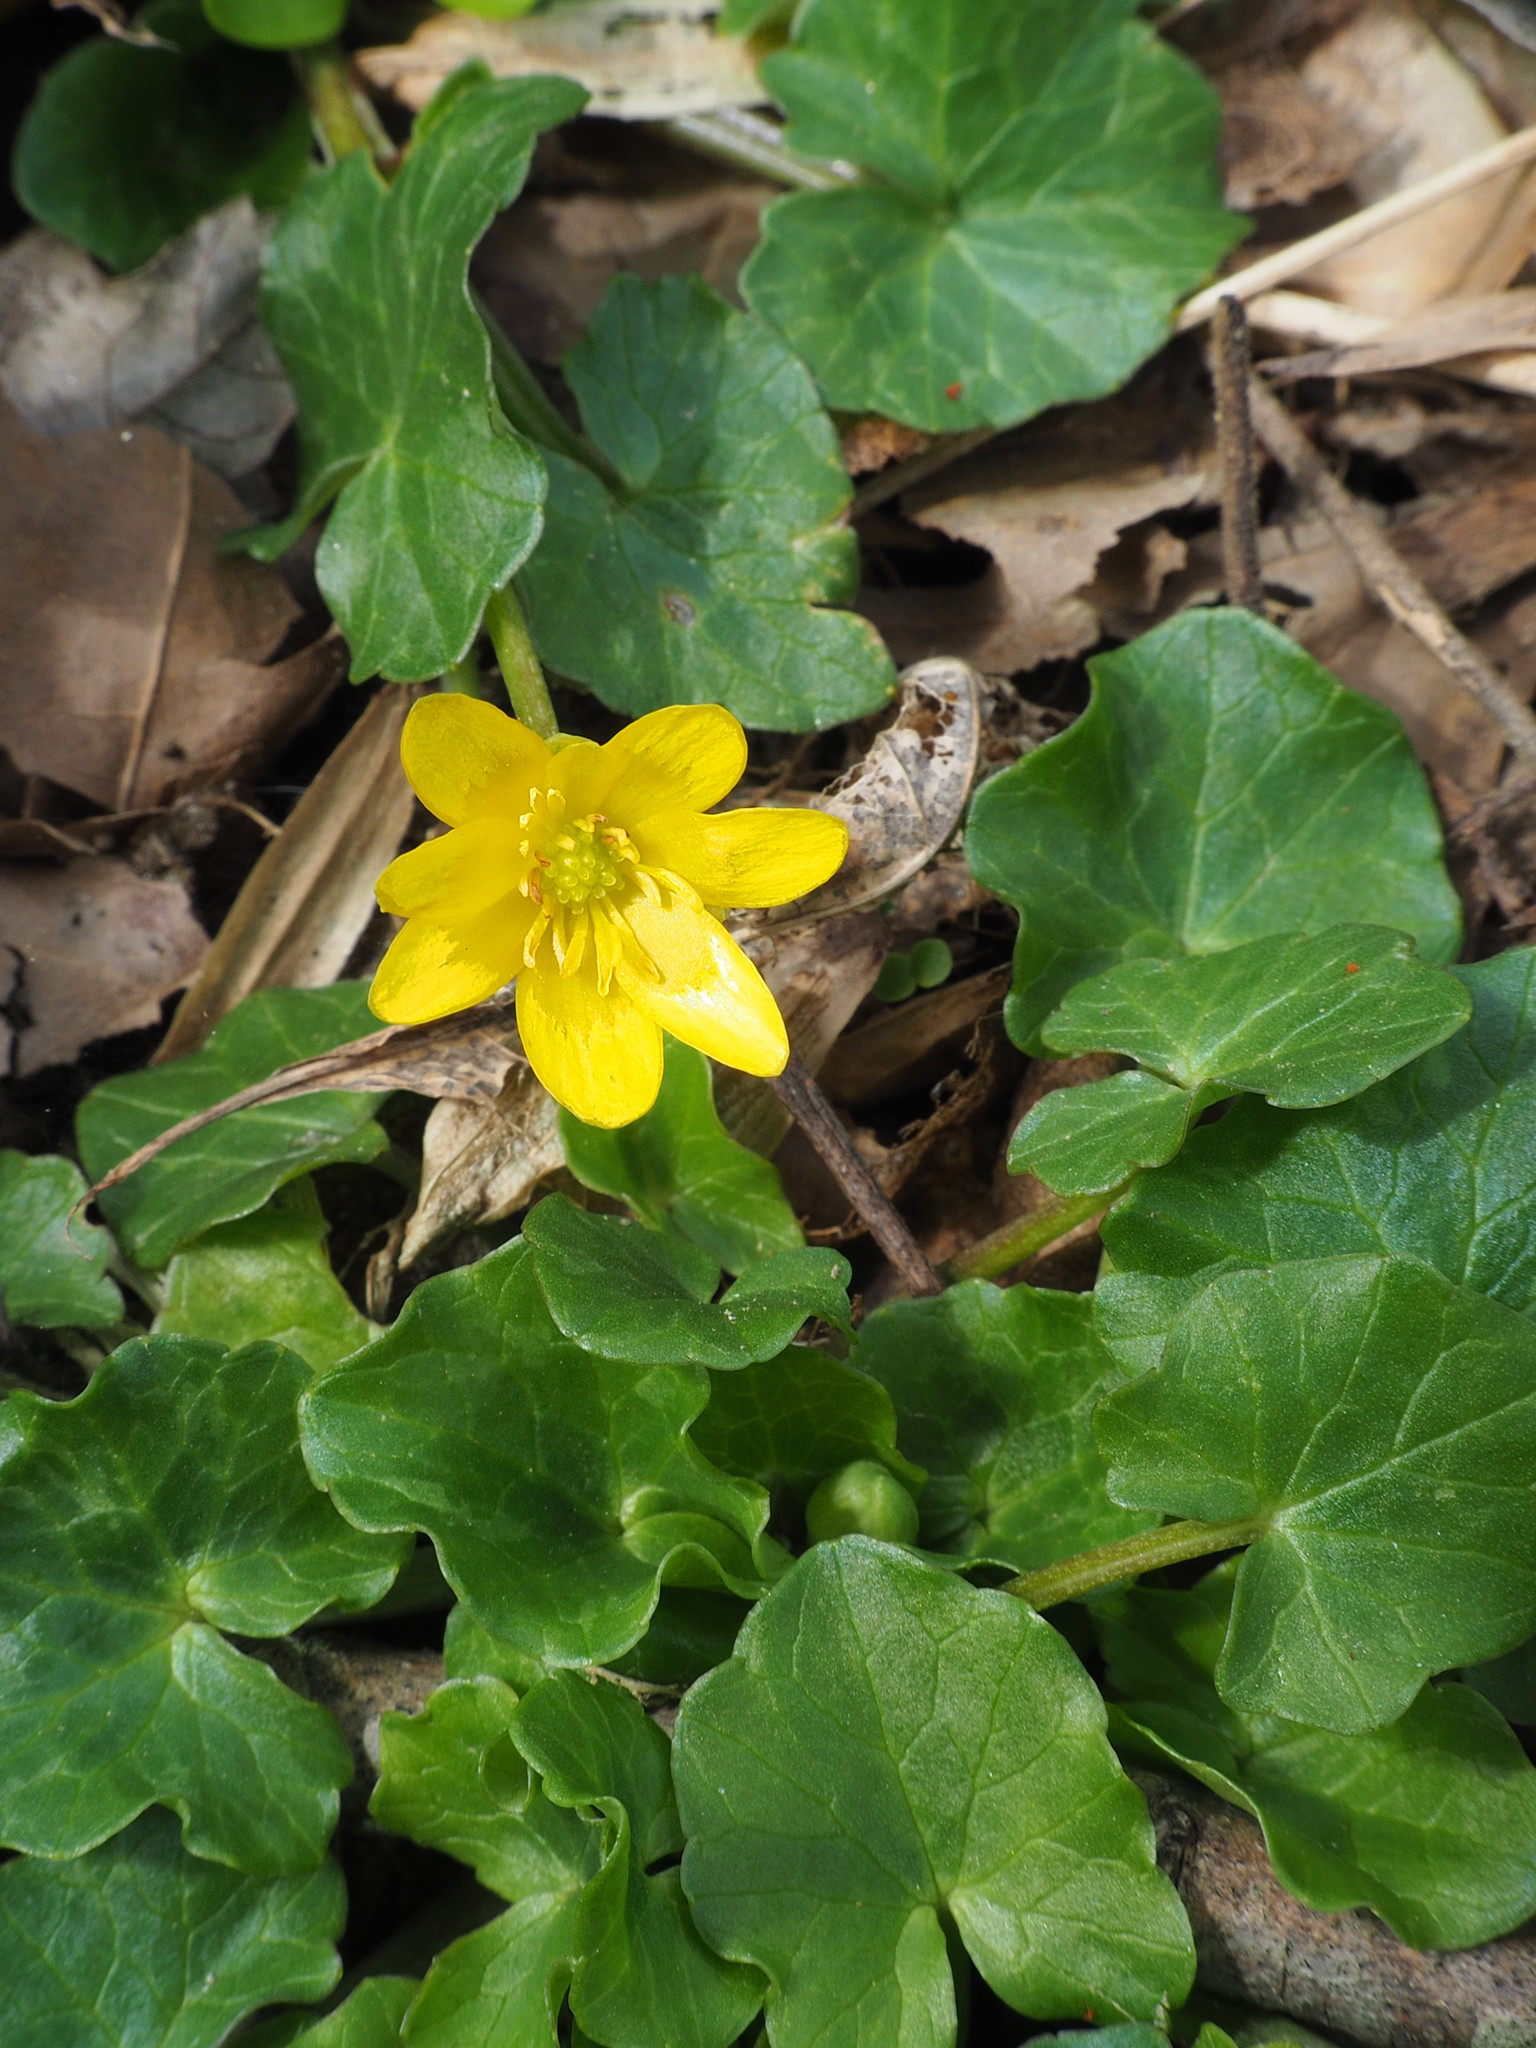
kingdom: Plantae
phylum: Tracheophyta
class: Magnoliopsida
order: Ranunculales
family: Ranunculaceae
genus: Ficaria
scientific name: Ficaria verna
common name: Lesser celandine
